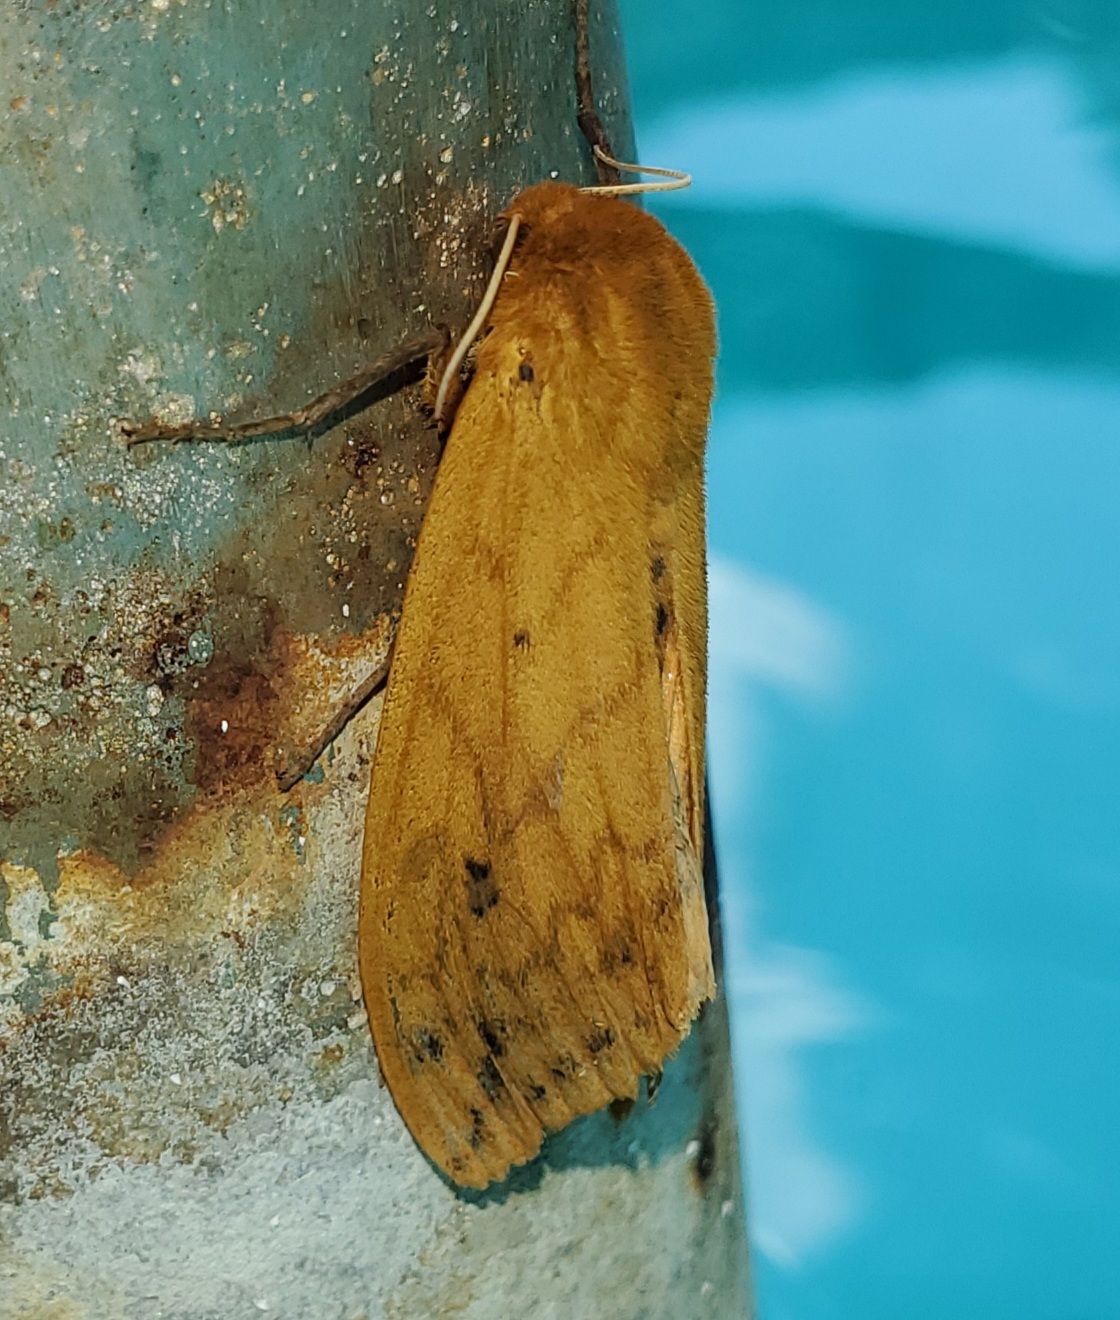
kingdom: Animalia
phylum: Arthropoda
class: Insecta
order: Lepidoptera
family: Erebidae
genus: Pyrrharctia
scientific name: Pyrrharctia isabella
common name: Isabella tiger moth
